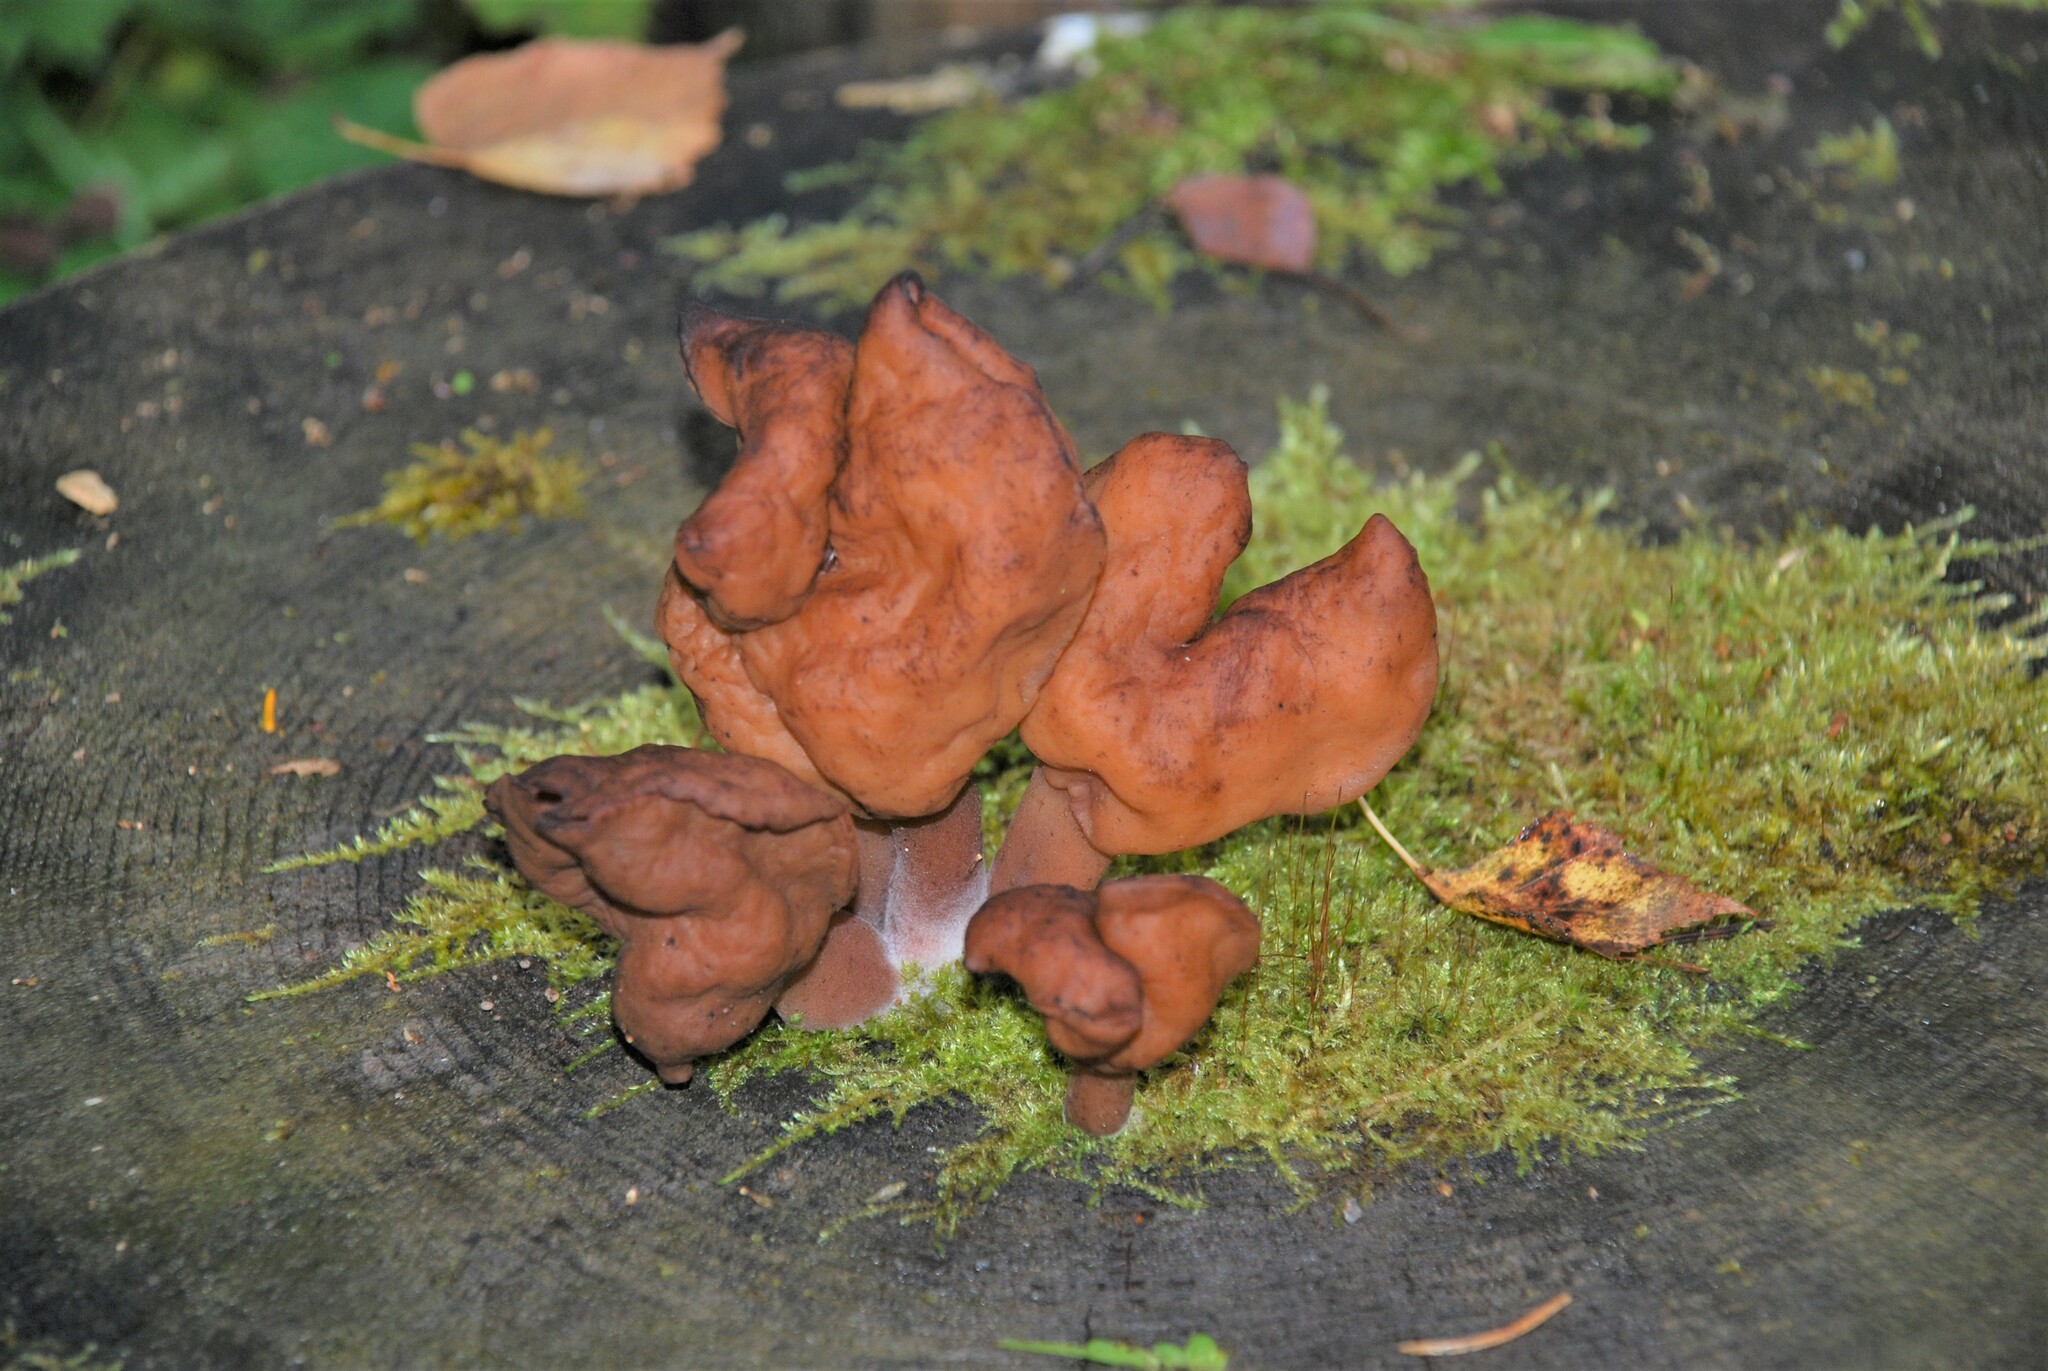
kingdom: Fungi
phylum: Ascomycota
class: Pezizomycetes
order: Pezizales
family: Discinaceae
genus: Gyromitra
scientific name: Gyromitra infula
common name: Pouched false morel
